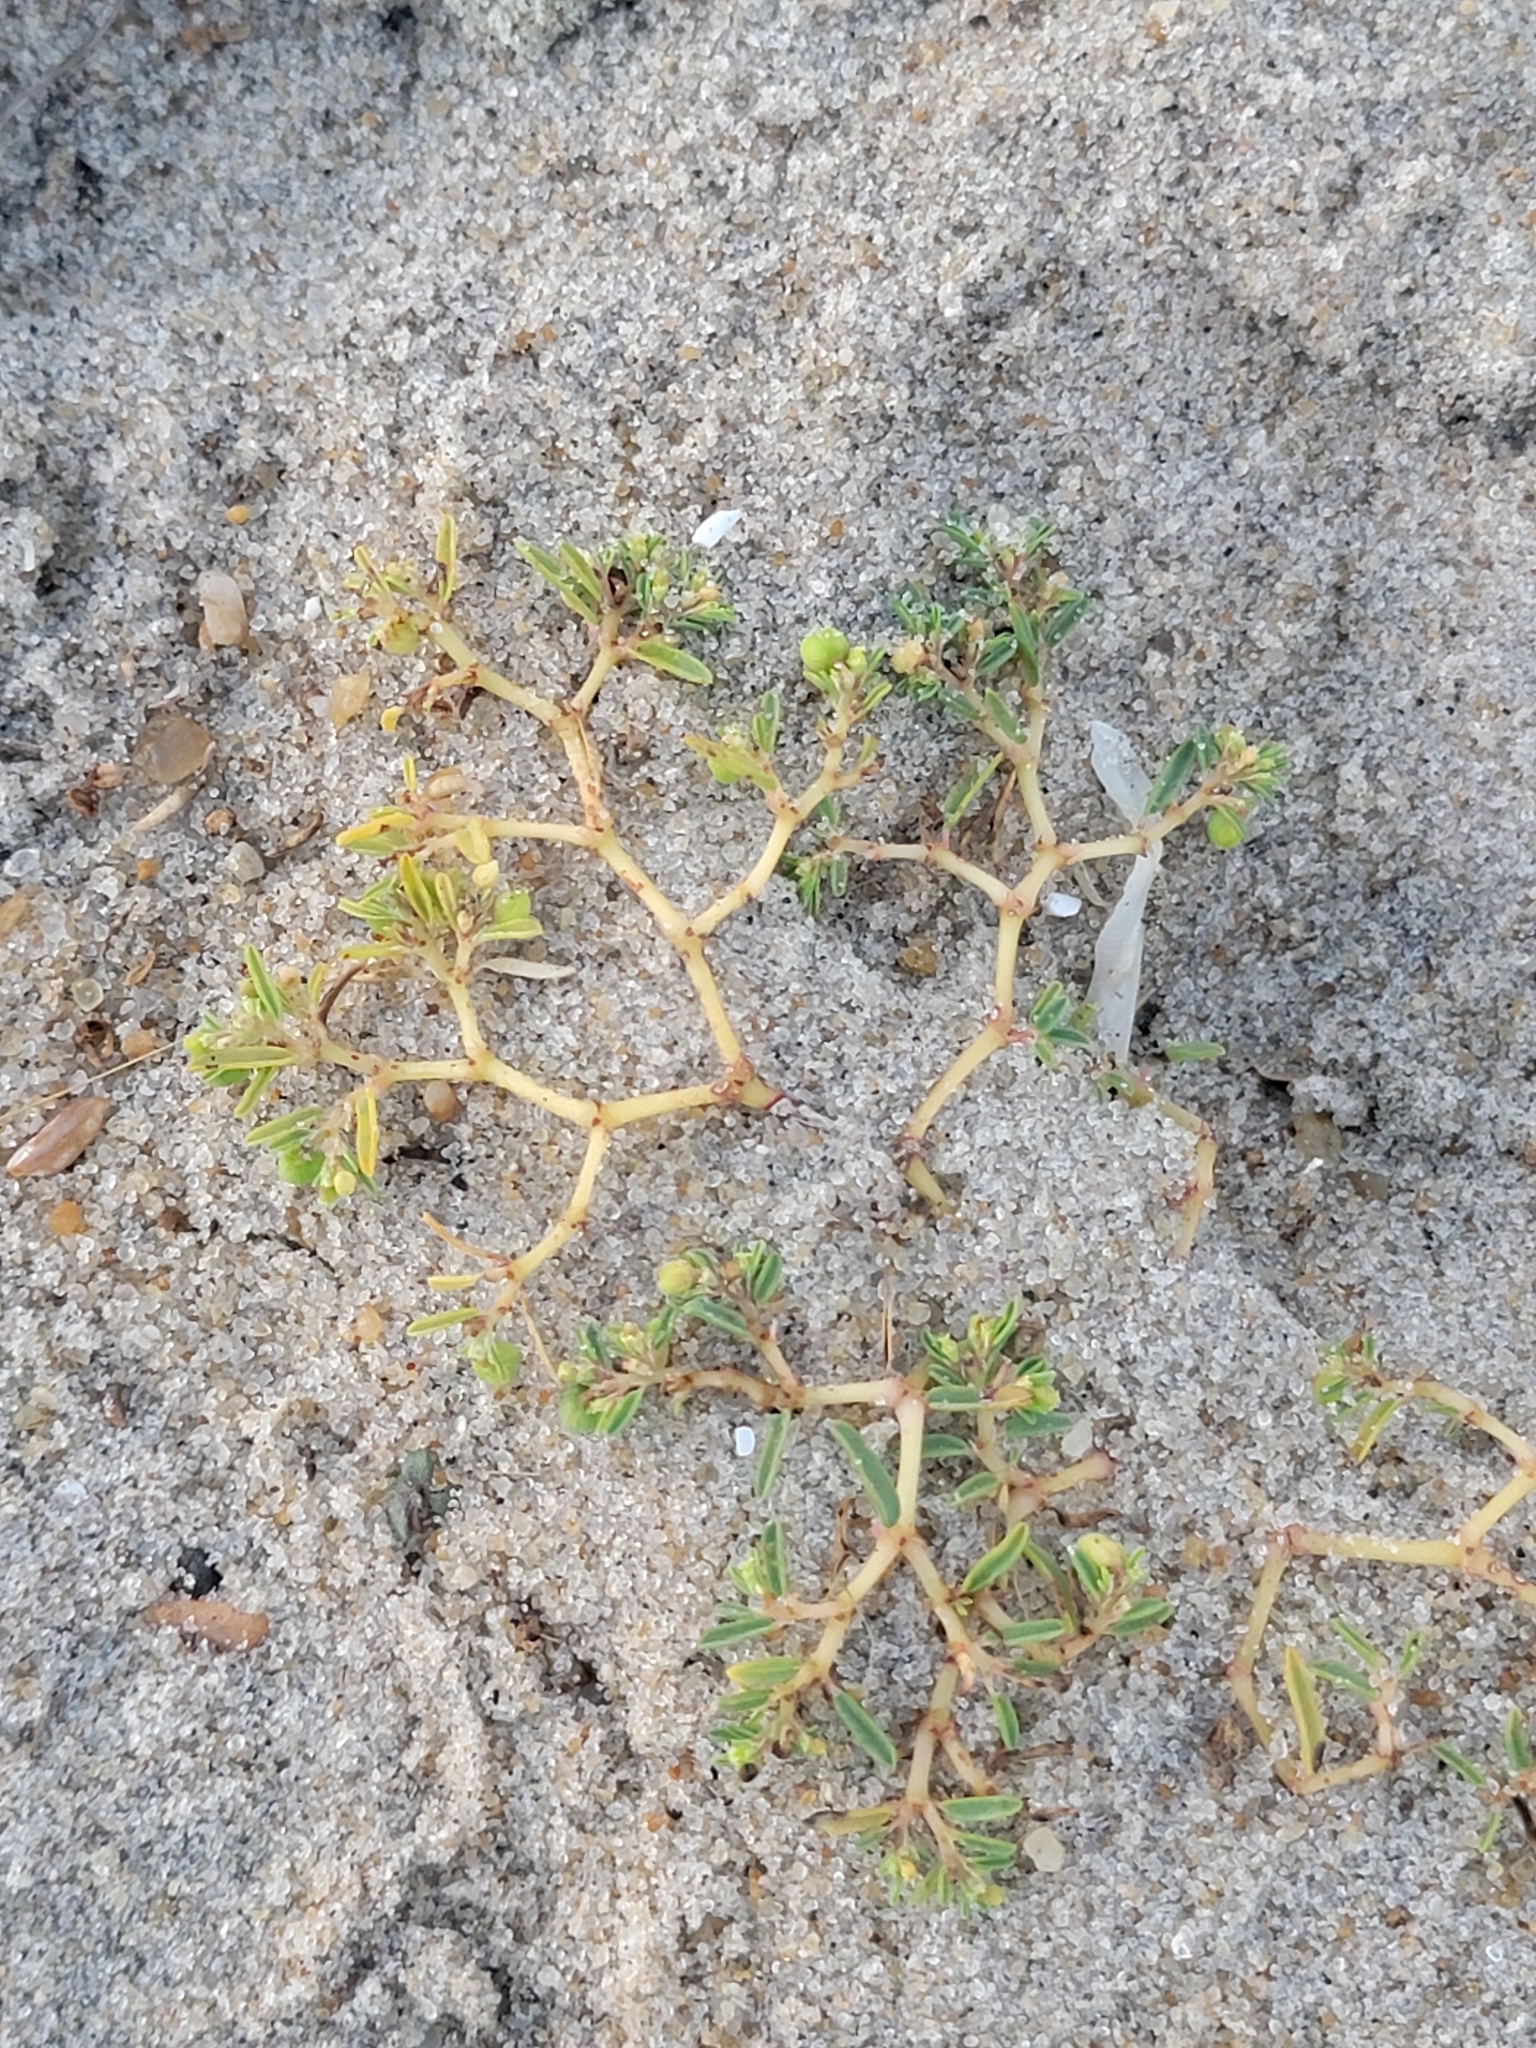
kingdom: Plantae
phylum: Tracheophyta
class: Magnoliopsida
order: Malpighiales
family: Euphorbiaceae
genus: Euphorbia
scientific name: Euphorbia polygonifolia
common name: Knotweed spurge
